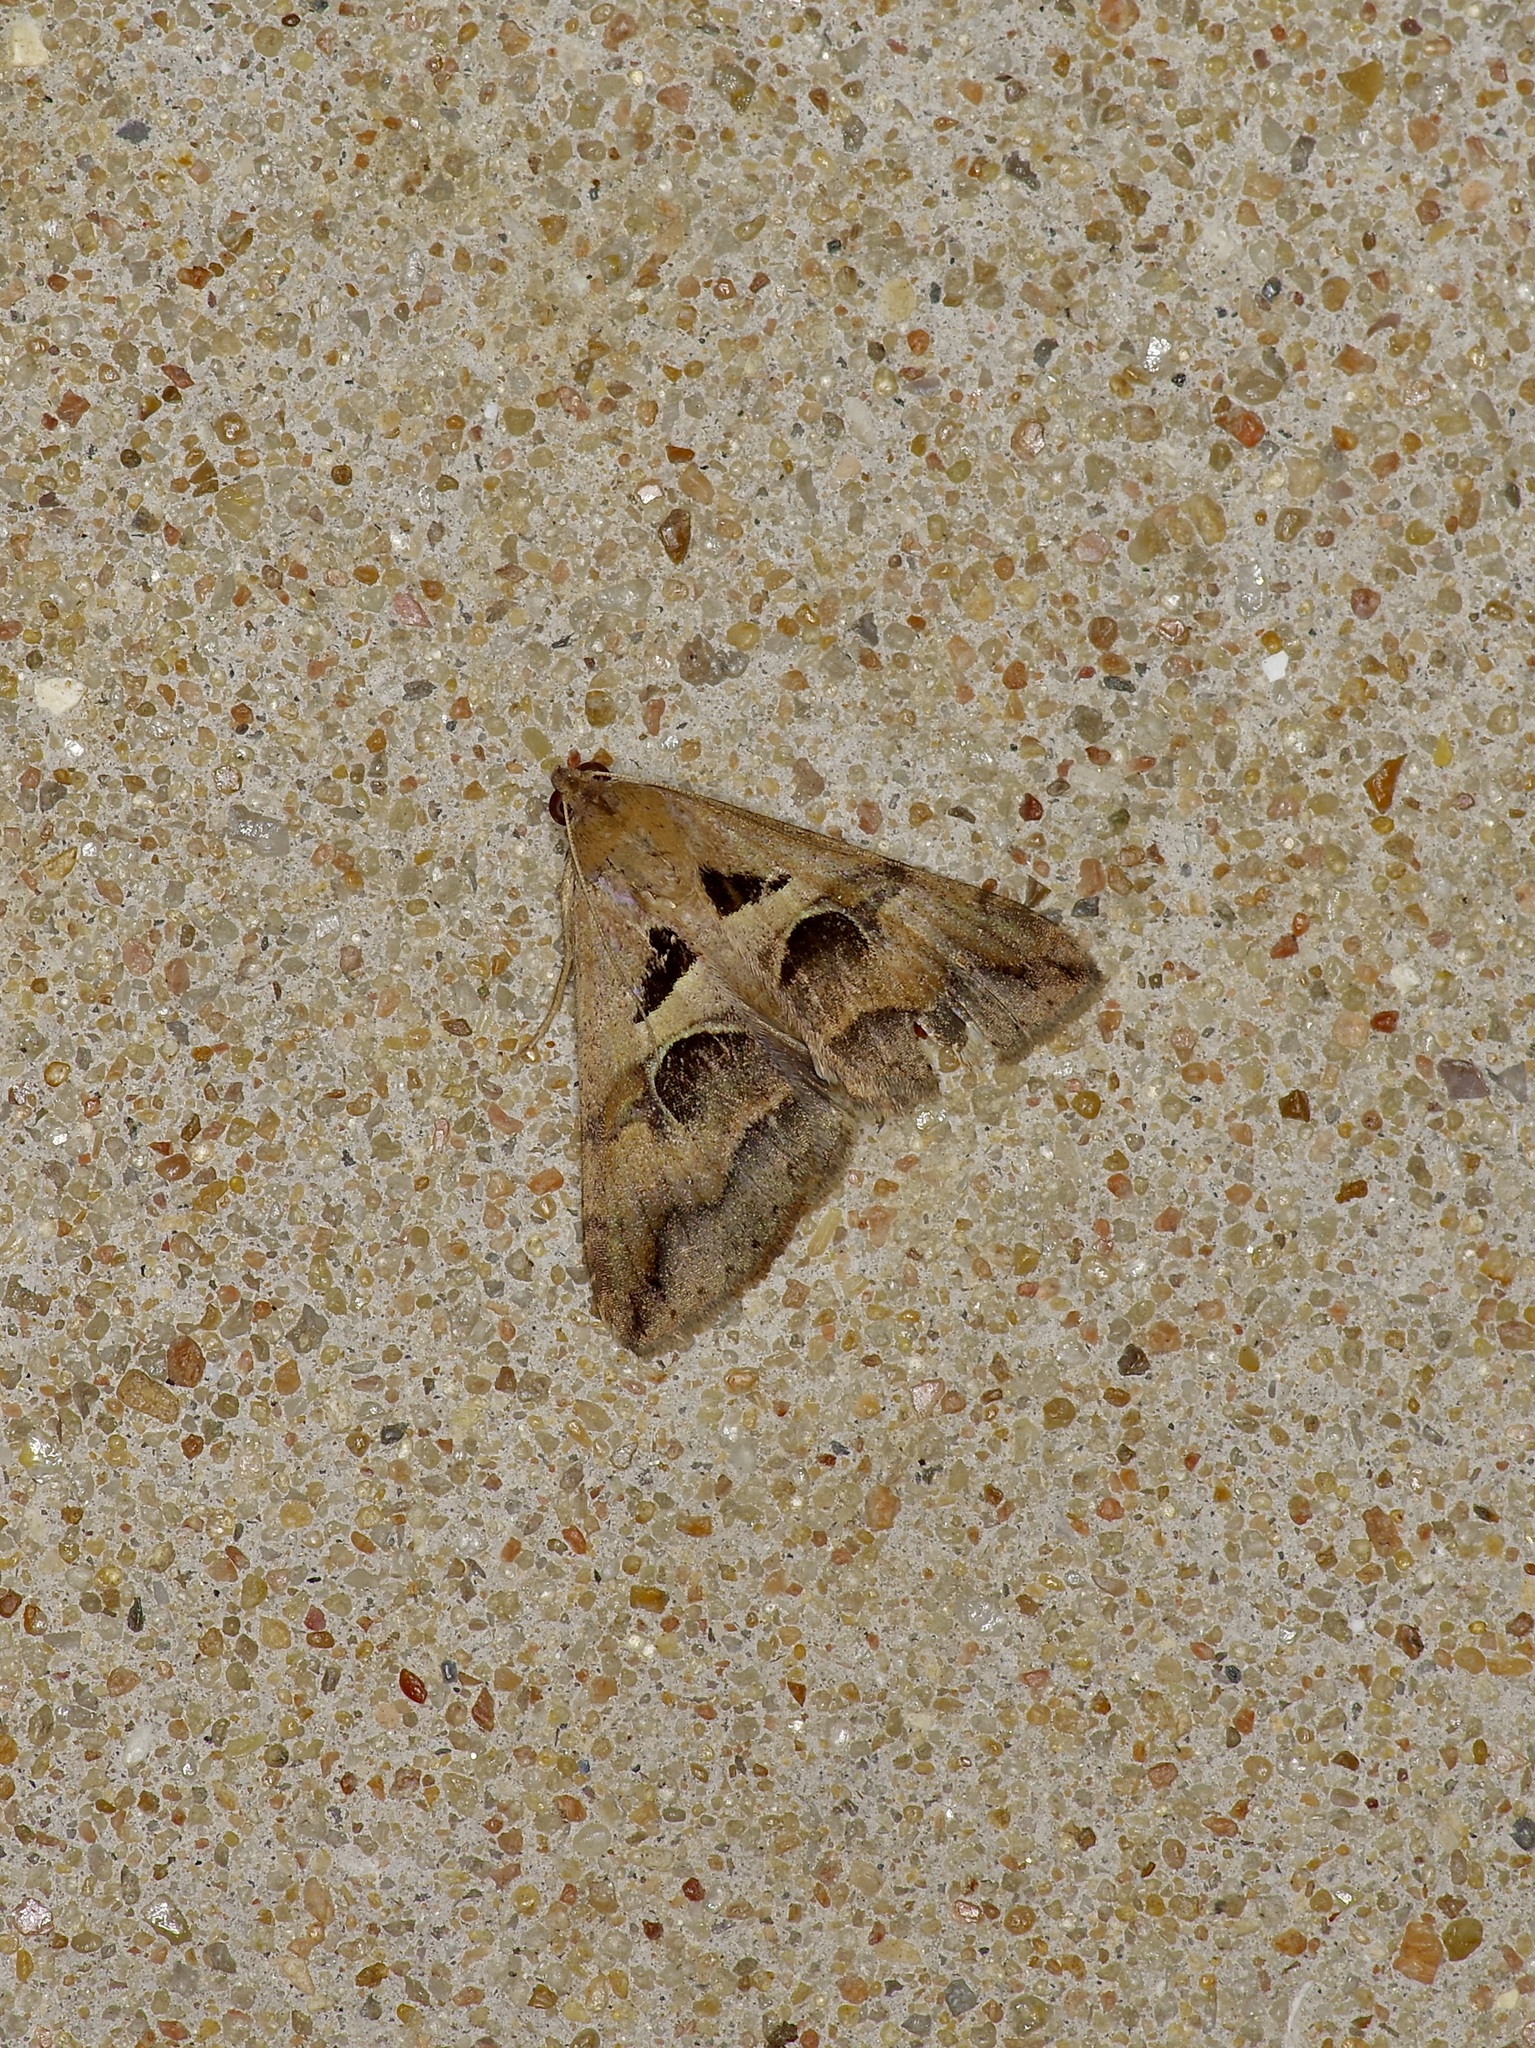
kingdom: Animalia
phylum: Arthropoda
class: Insecta
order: Lepidoptera
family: Erebidae
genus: Melipotis
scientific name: Melipotis cellaris
